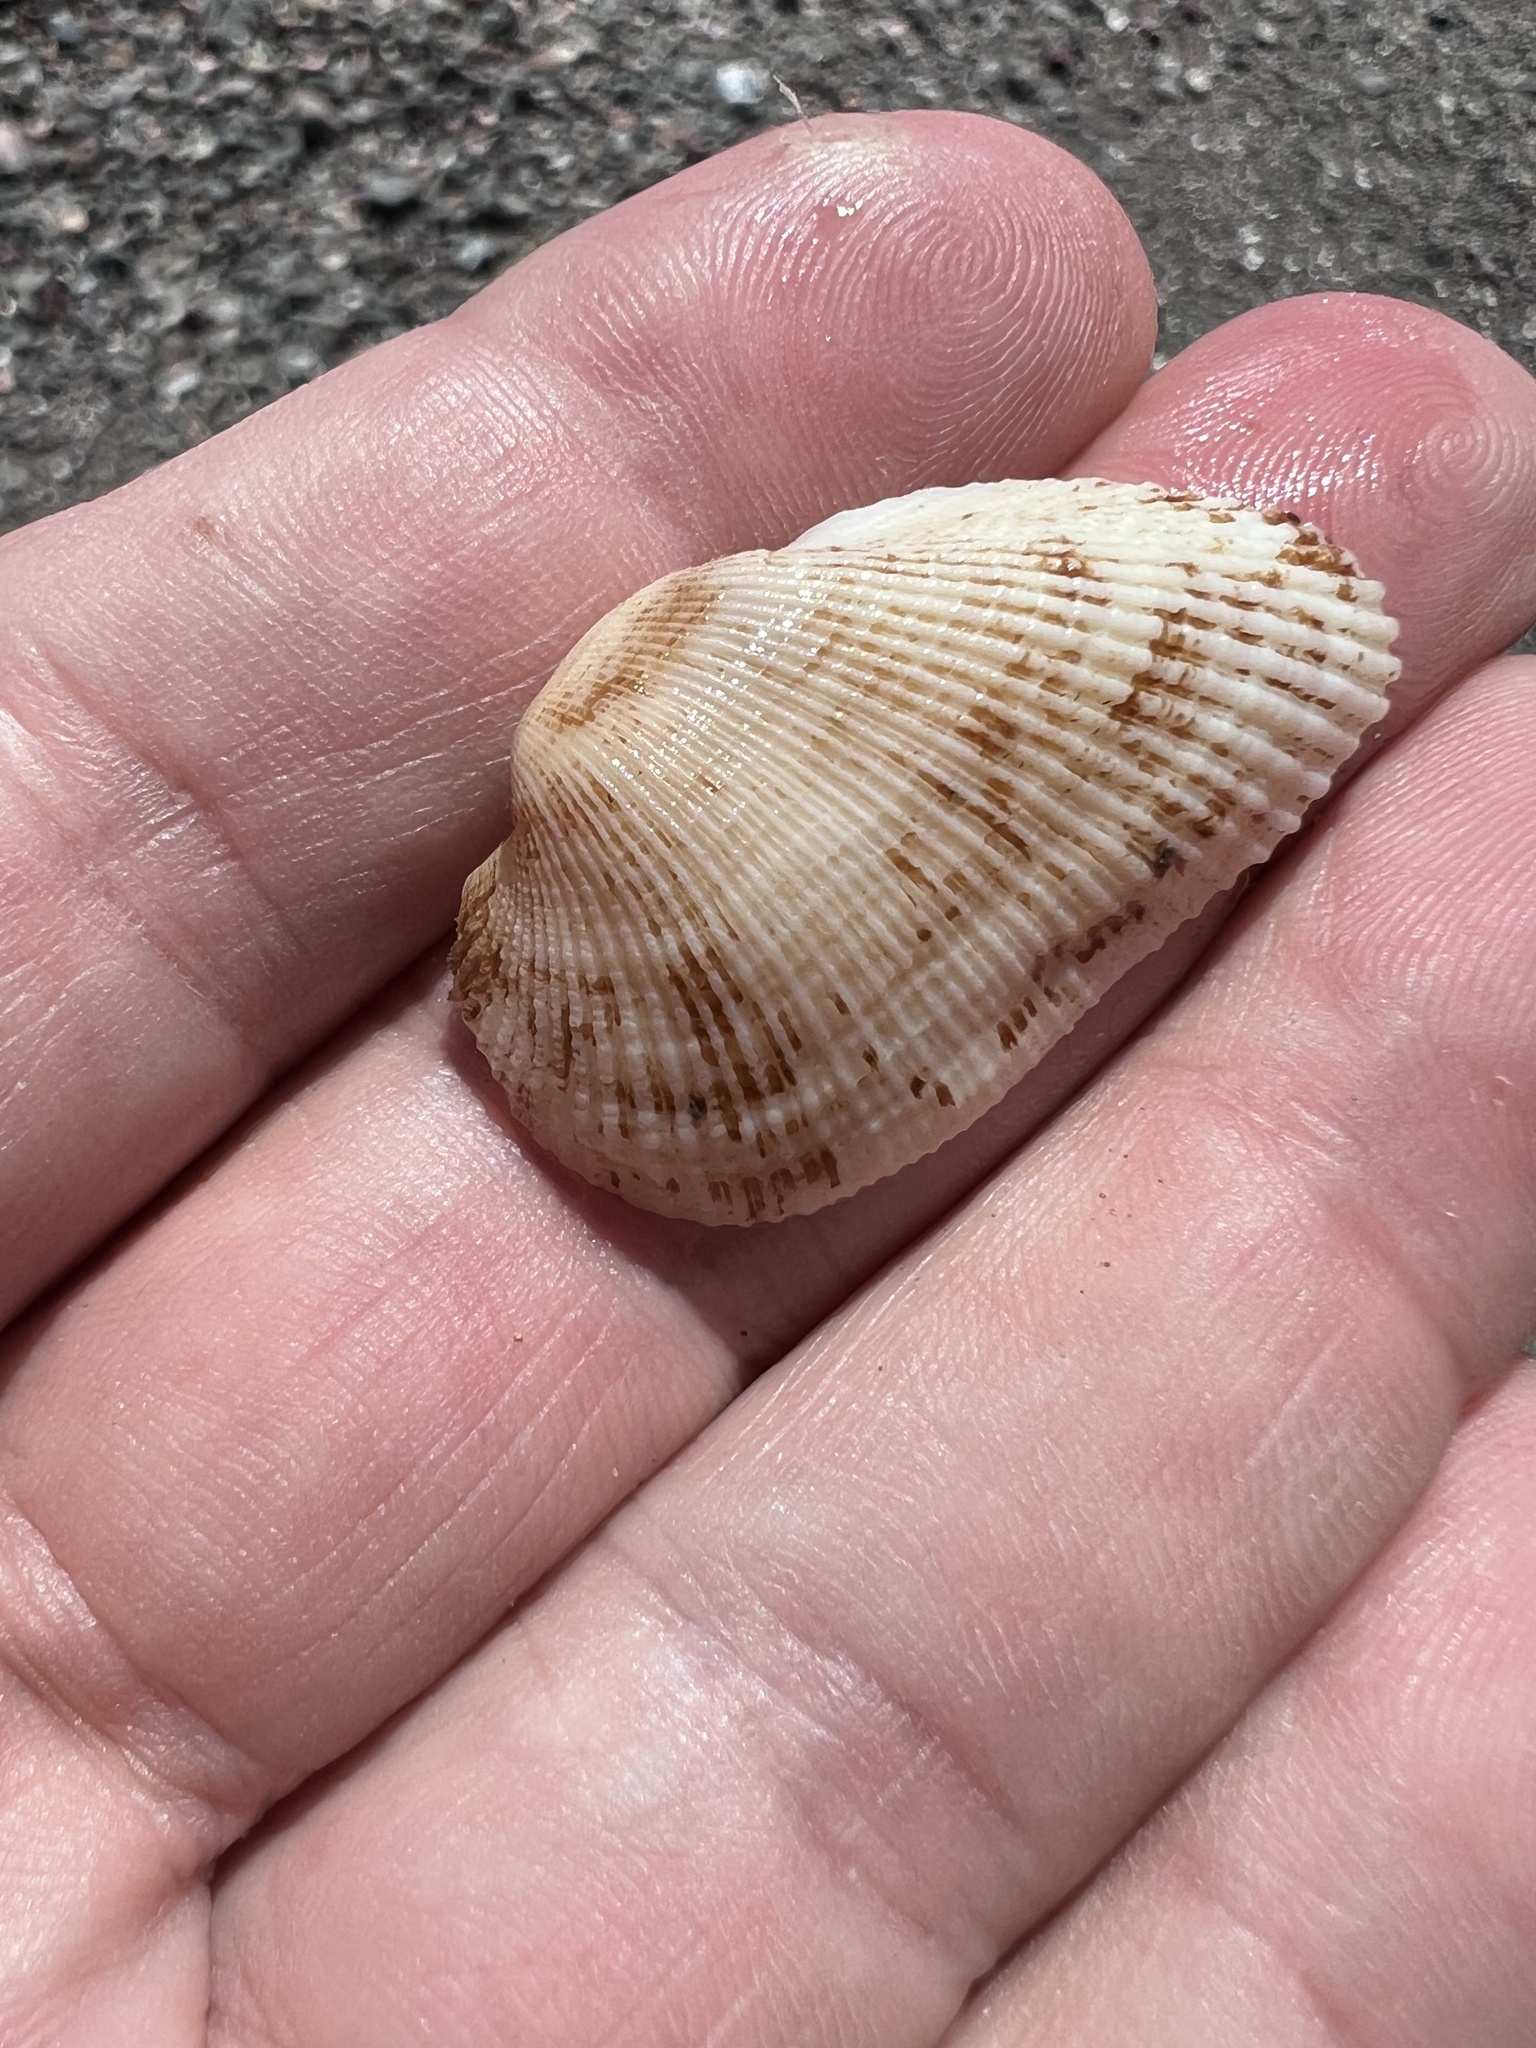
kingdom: Animalia
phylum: Mollusca
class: Bivalvia
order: Arcida
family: Arcidae
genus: Fugleria
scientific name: Fugleria illota
